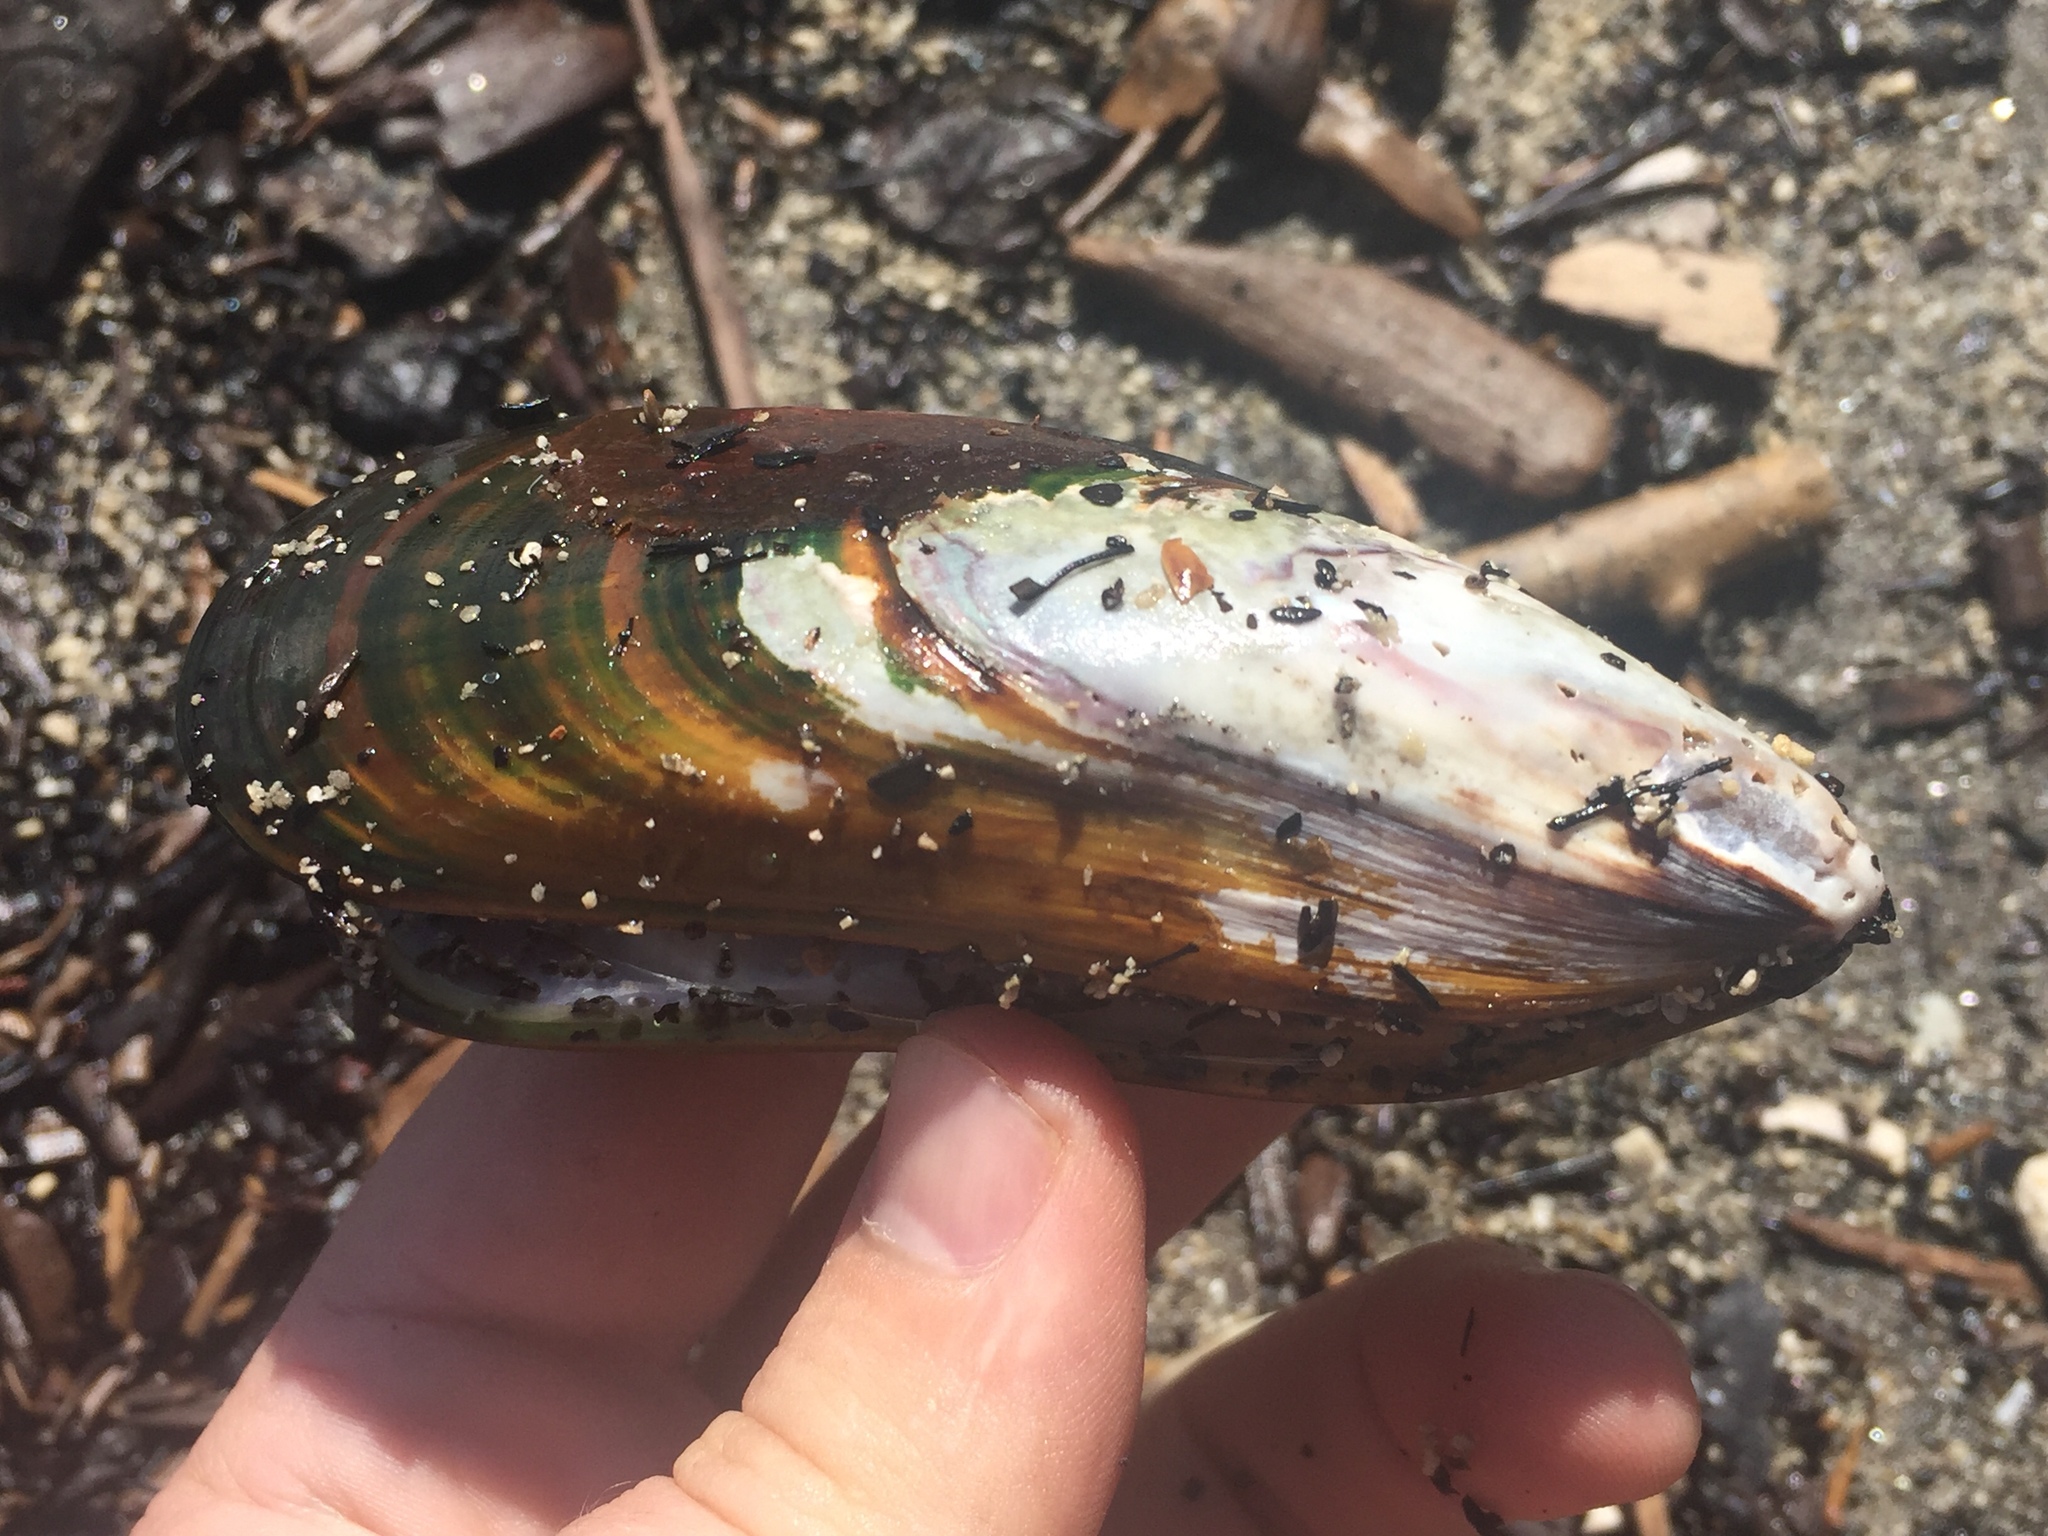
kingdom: Animalia
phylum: Mollusca
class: Bivalvia
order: Mytilida
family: Mytilidae
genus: Perna
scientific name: Perna canaliculus
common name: New zealand greenshelltm
